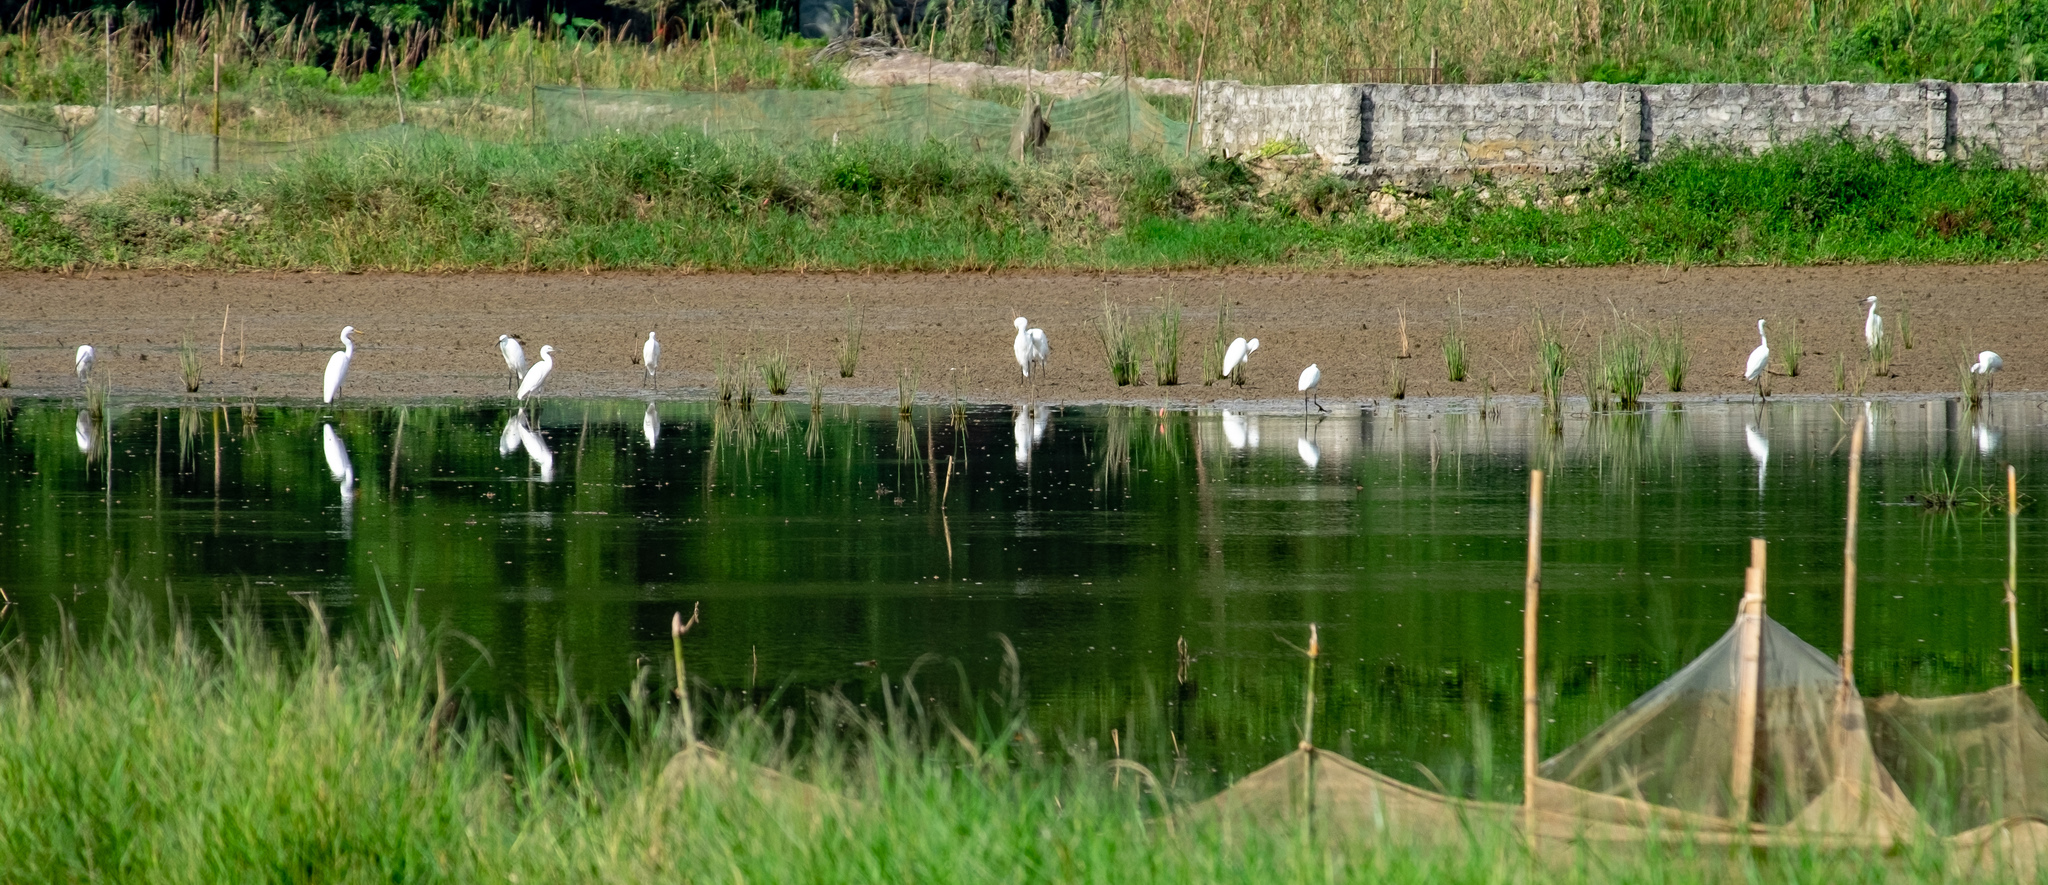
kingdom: Animalia
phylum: Chordata
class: Aves
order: Pelecaniformes
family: Ardeidae
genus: Egretta
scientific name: Egretta garzetta
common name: Little egret
